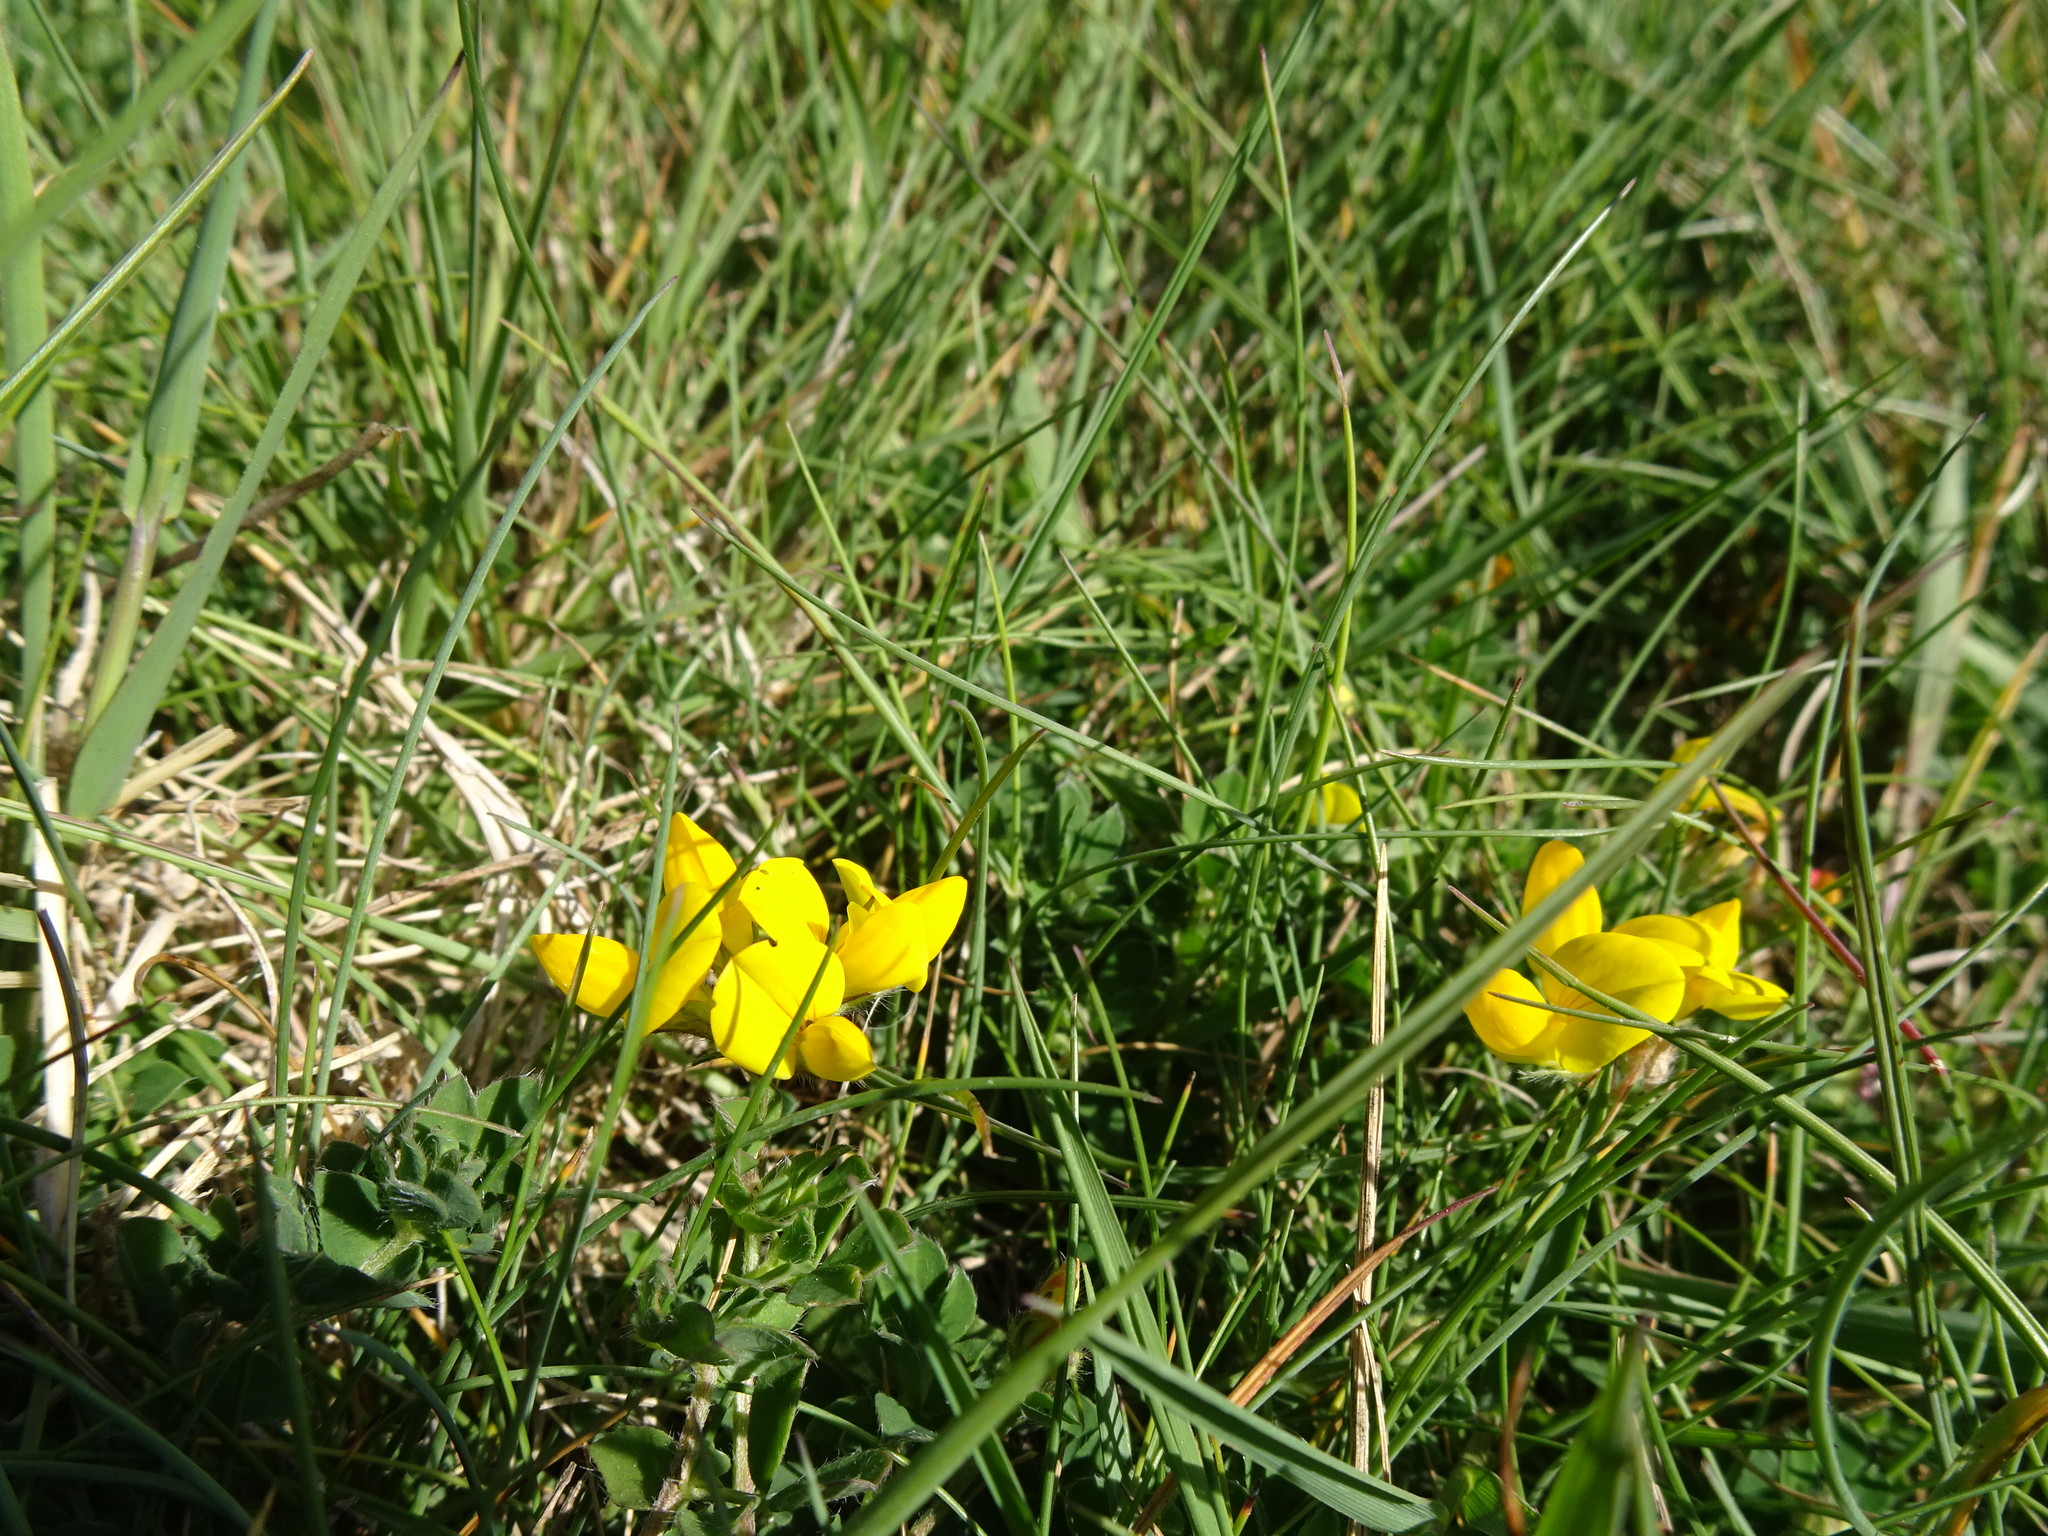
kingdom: Plantae
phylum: Tracheophyta
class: Magnoliopsida
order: Fabales
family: Fabaceae
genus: Lotus
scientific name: Lotus corniculatus
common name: Common bird's-foot-trefoil
